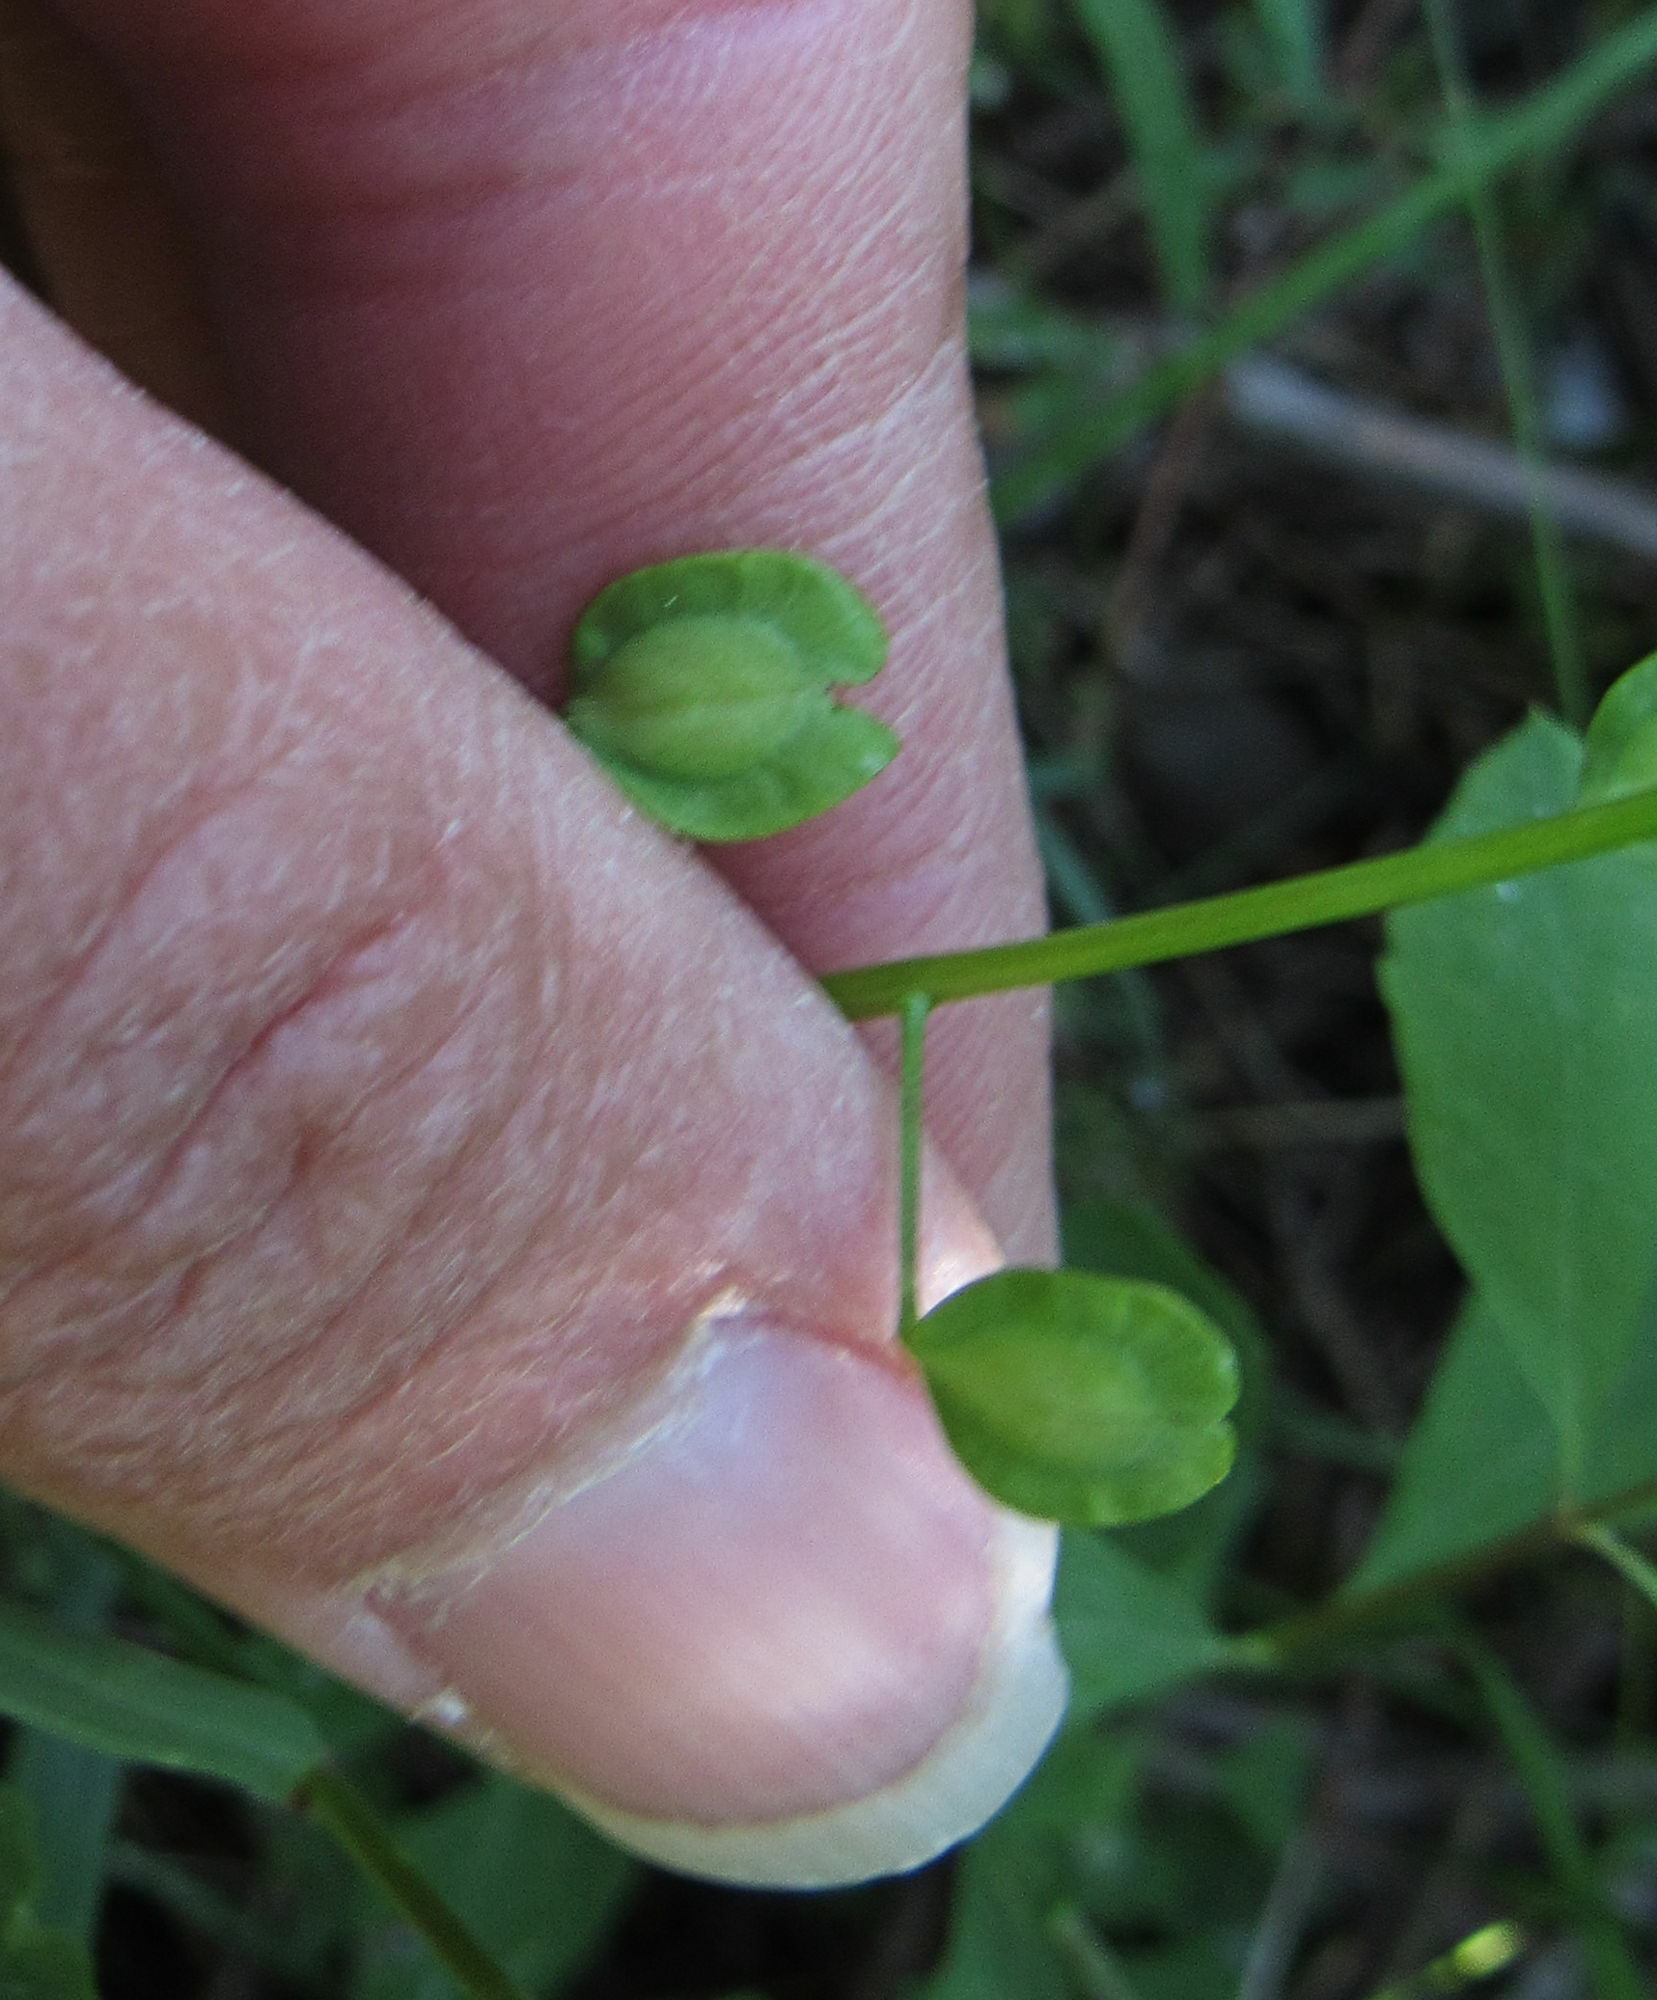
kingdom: Plantae
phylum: Tracheophyta
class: Magnoliopsida
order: Brassicales
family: Brassicaceae
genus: Thlaspi
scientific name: Thlaspi arvense
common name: Field pennycress
